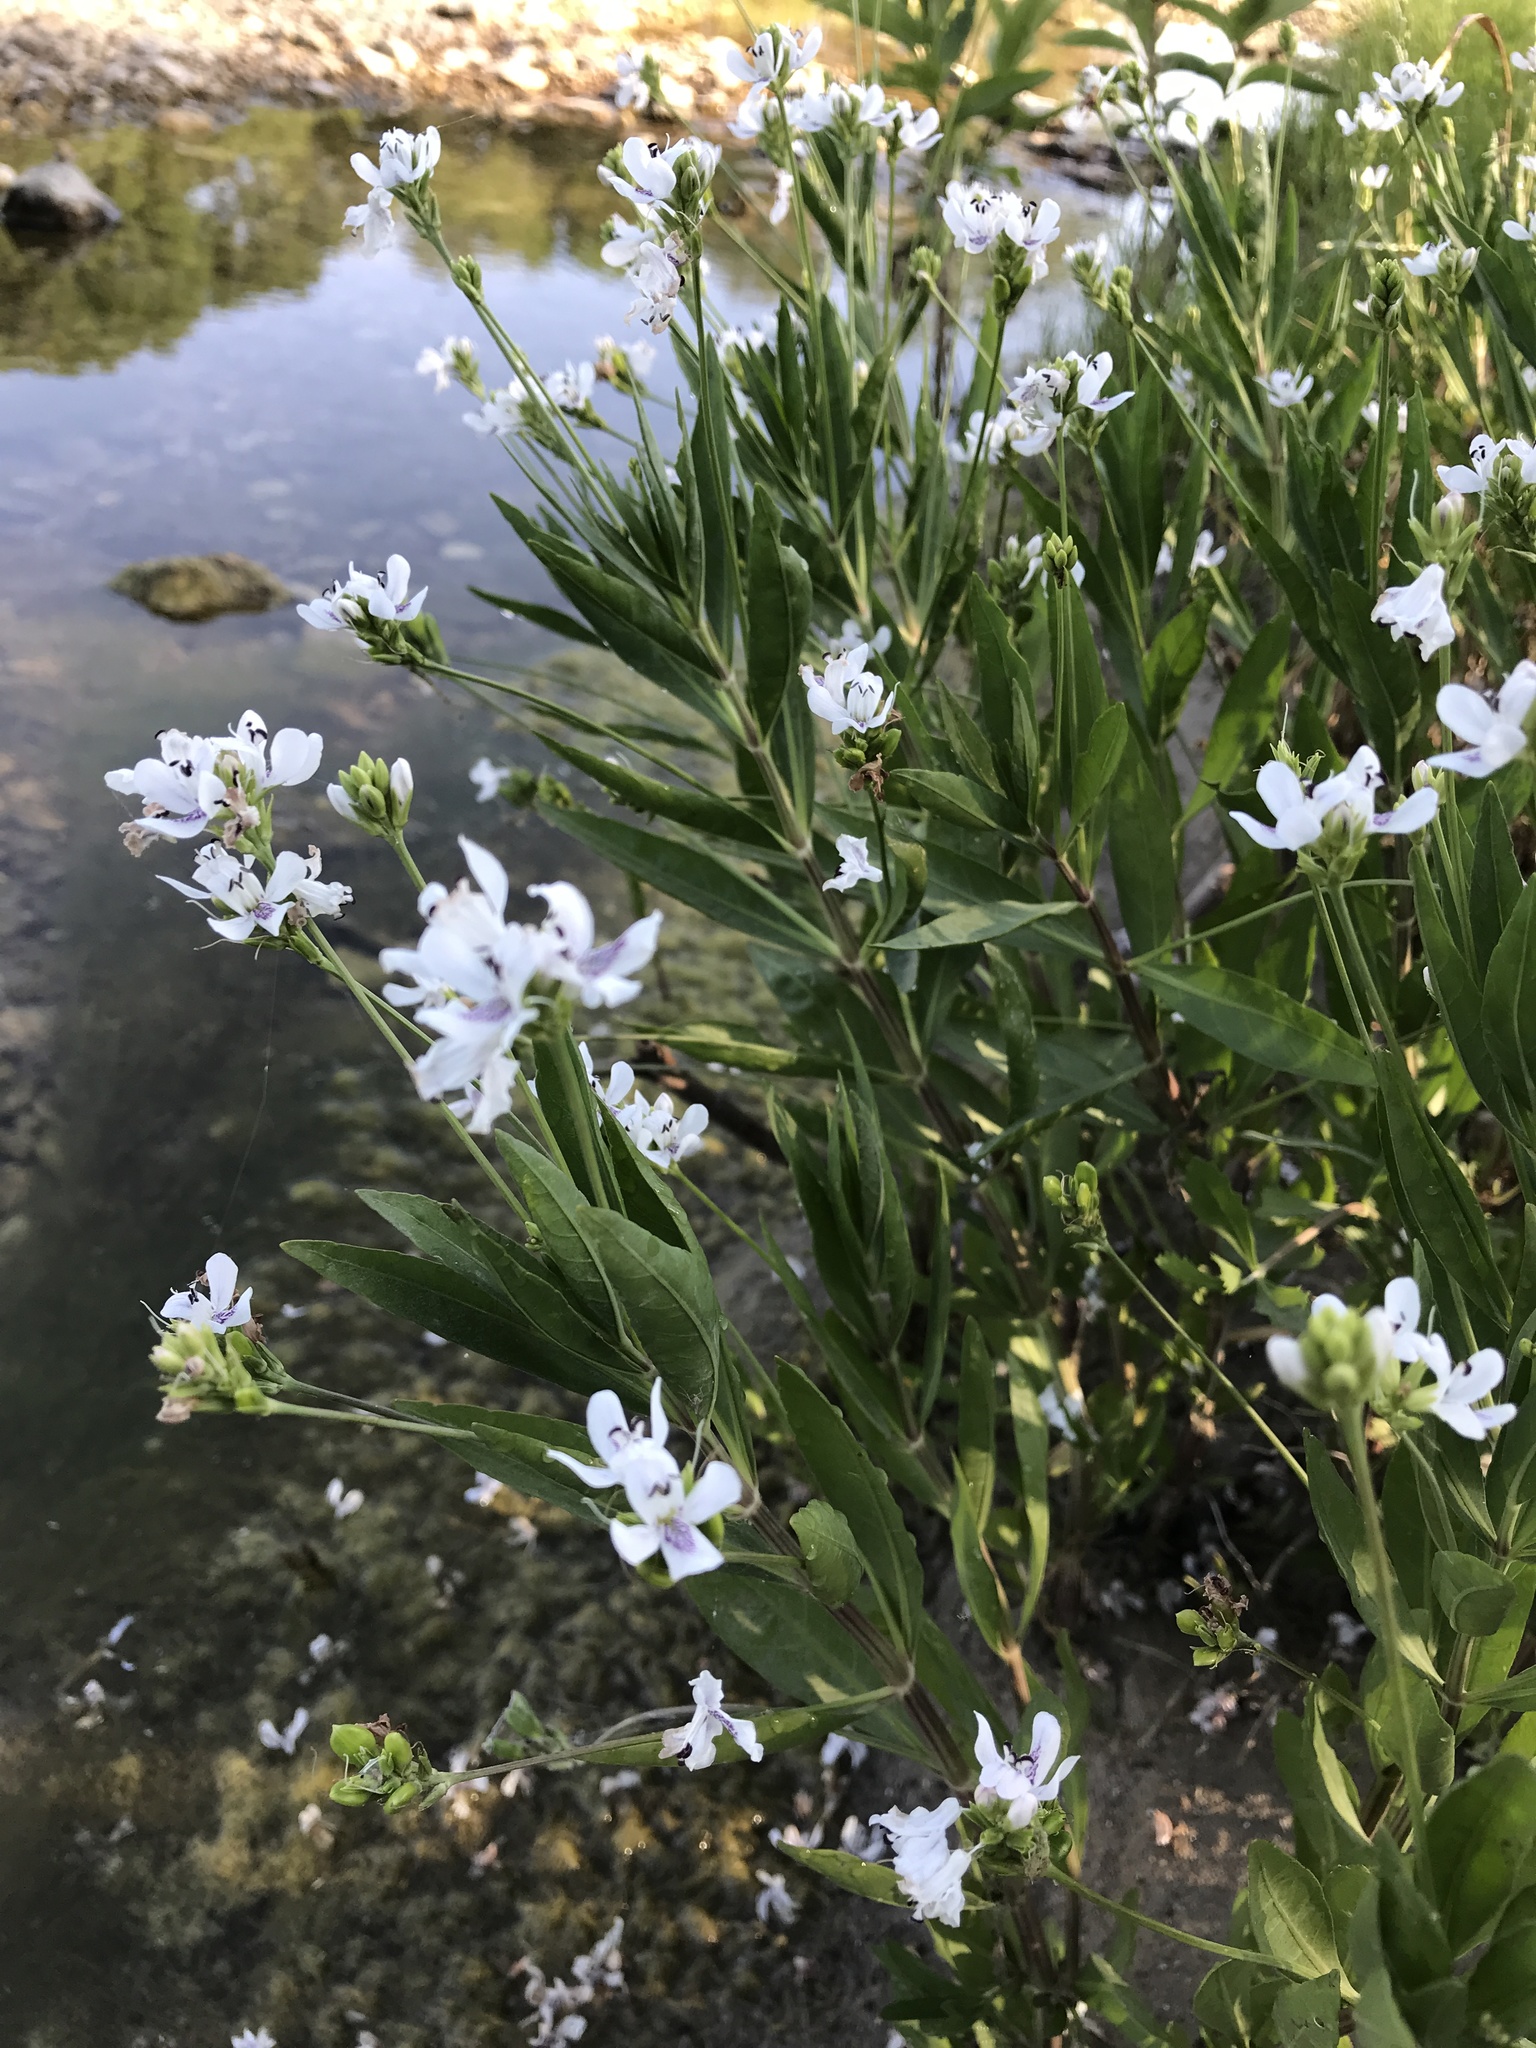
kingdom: Plantae
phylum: Tracheophyta
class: Magnoliopsida
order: Lamiales
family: Acanthaceae
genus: Dianthera
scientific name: Dianthera americana
